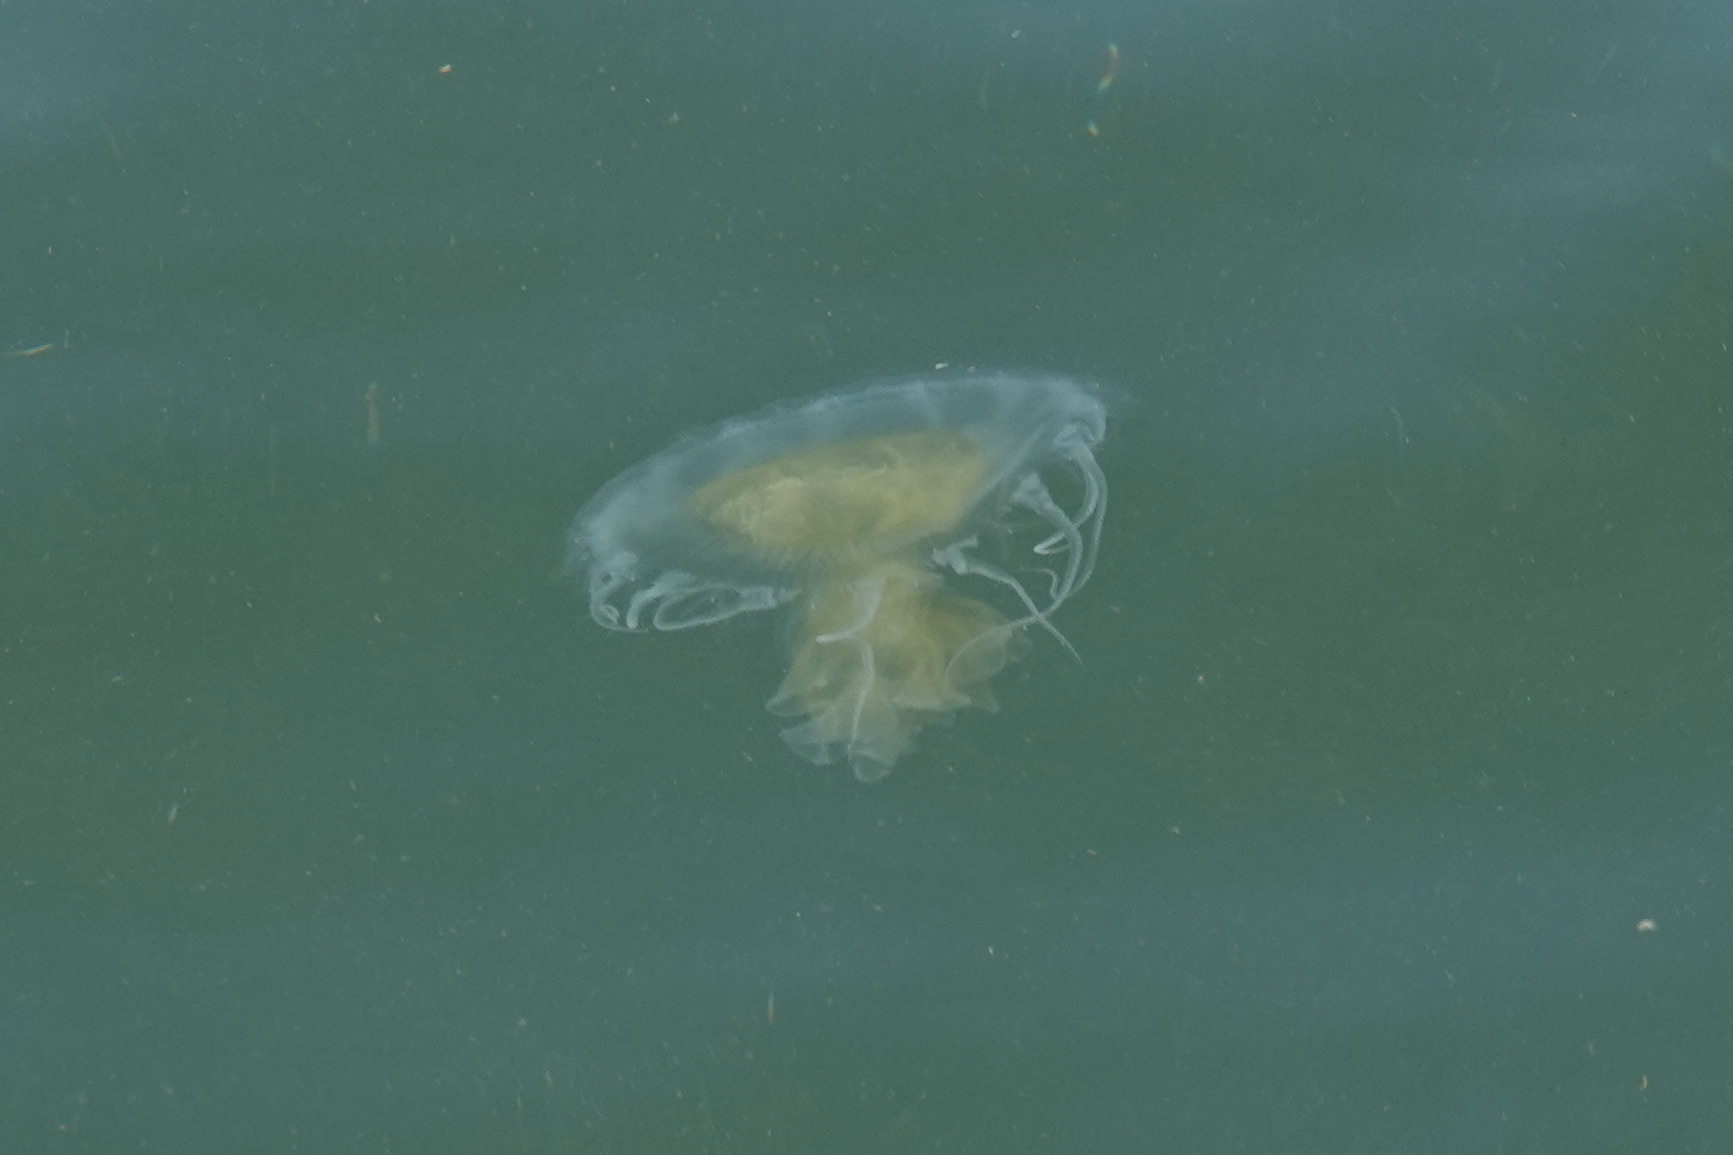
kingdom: Animalia
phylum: Cnidaria
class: Scyphozoa
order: Semaeostomeae
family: Phacellophoridae
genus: Phacellophora
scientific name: Phacellophora camtschatica
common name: Fried-egg jellyfish
